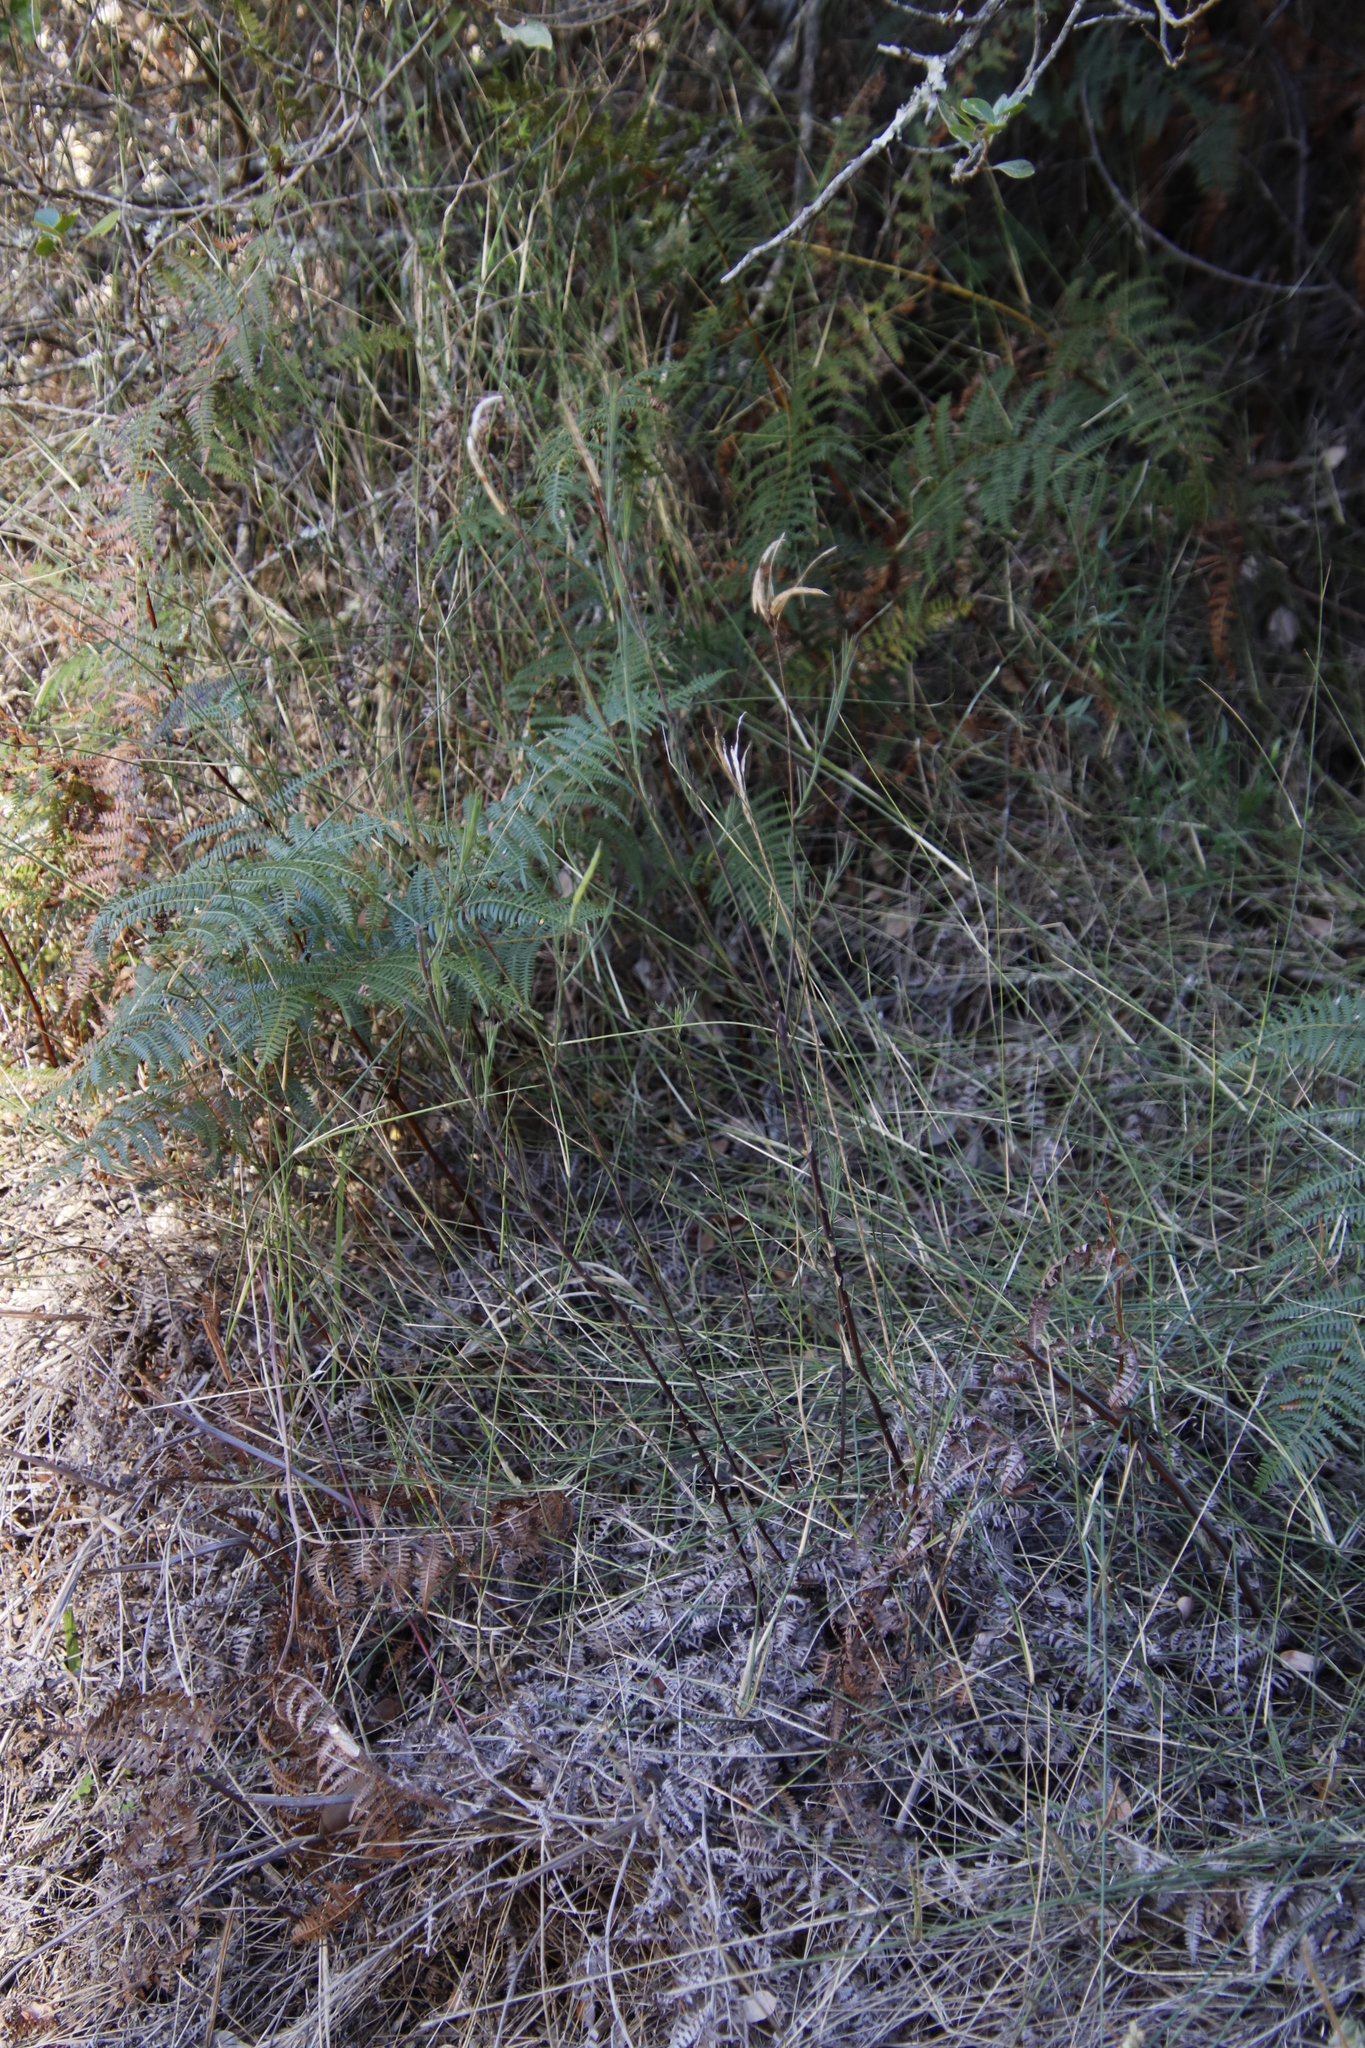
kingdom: Plantae
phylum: Tracheophyta
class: Magnoliopsida
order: Brassicales
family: Brassicaceae
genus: Heliophila
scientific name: Heliophila linearis
